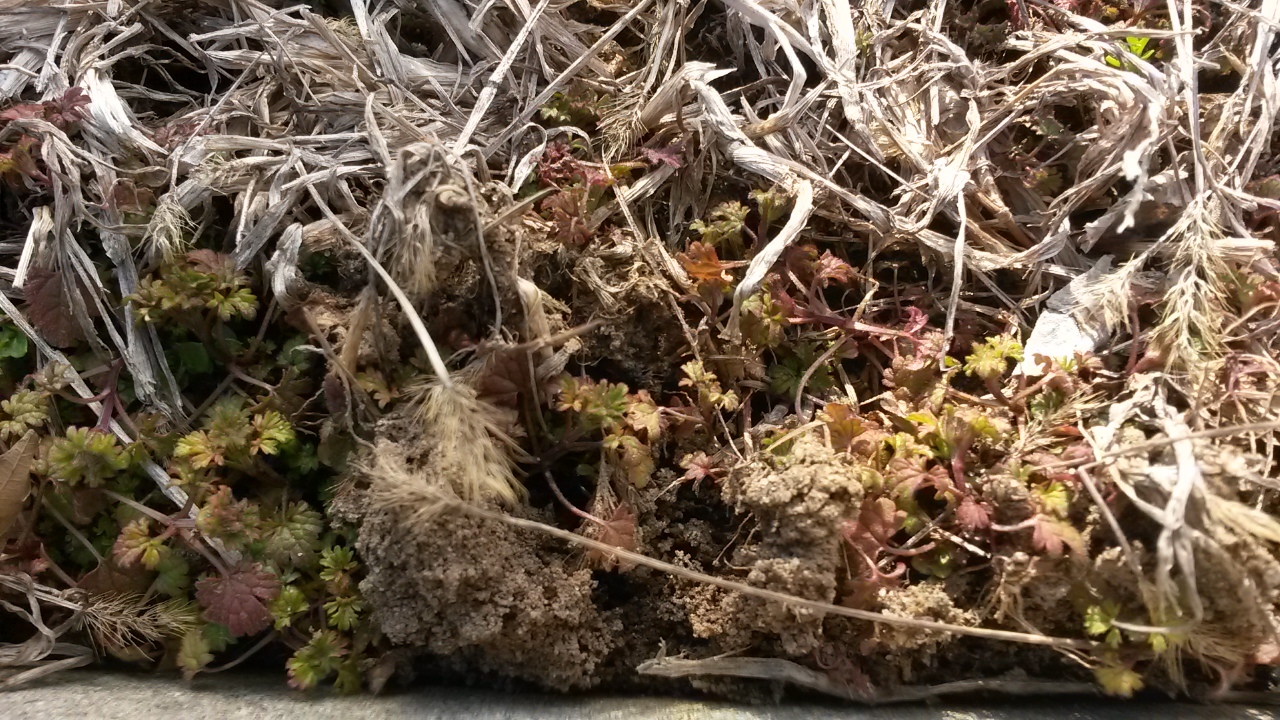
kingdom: Plantae
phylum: Tracheophyta
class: Magnoliopsida
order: Lamiales
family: Lamiaceae
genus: Lamium
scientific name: Lamium amplexicaule
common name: Henbit dead-nettle
